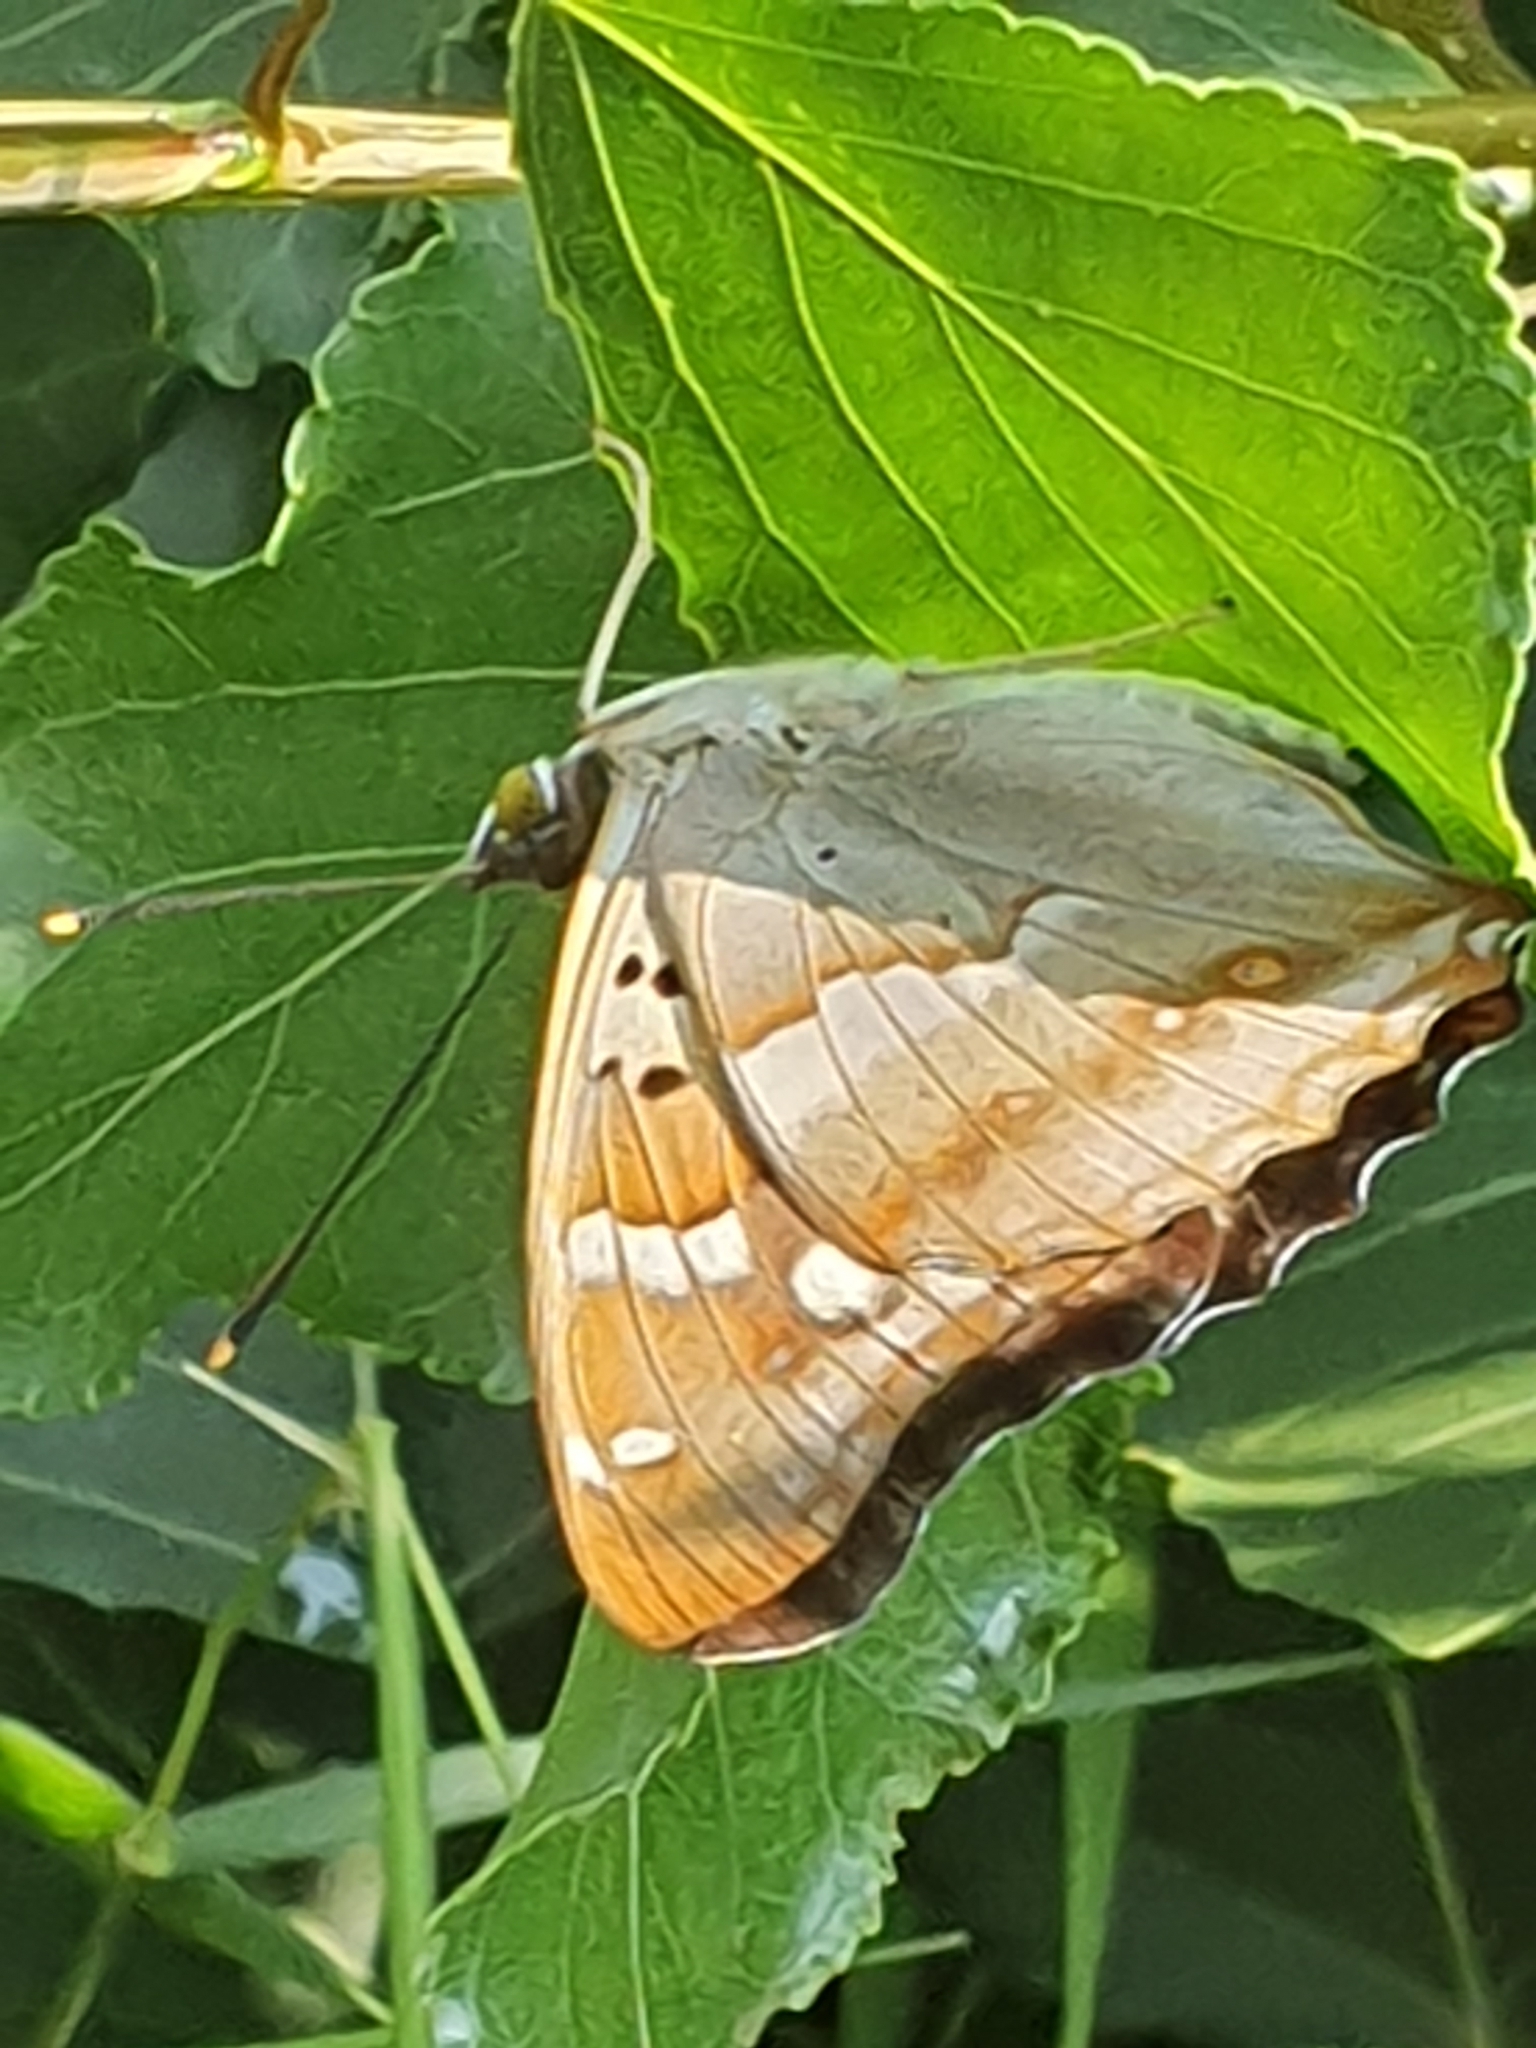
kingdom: Animalia
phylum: Arthropoda
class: Insecta
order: Lepidoptera
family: Nymphalidae
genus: Apatura
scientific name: Apatura ilia
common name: Lesser purple emperor
